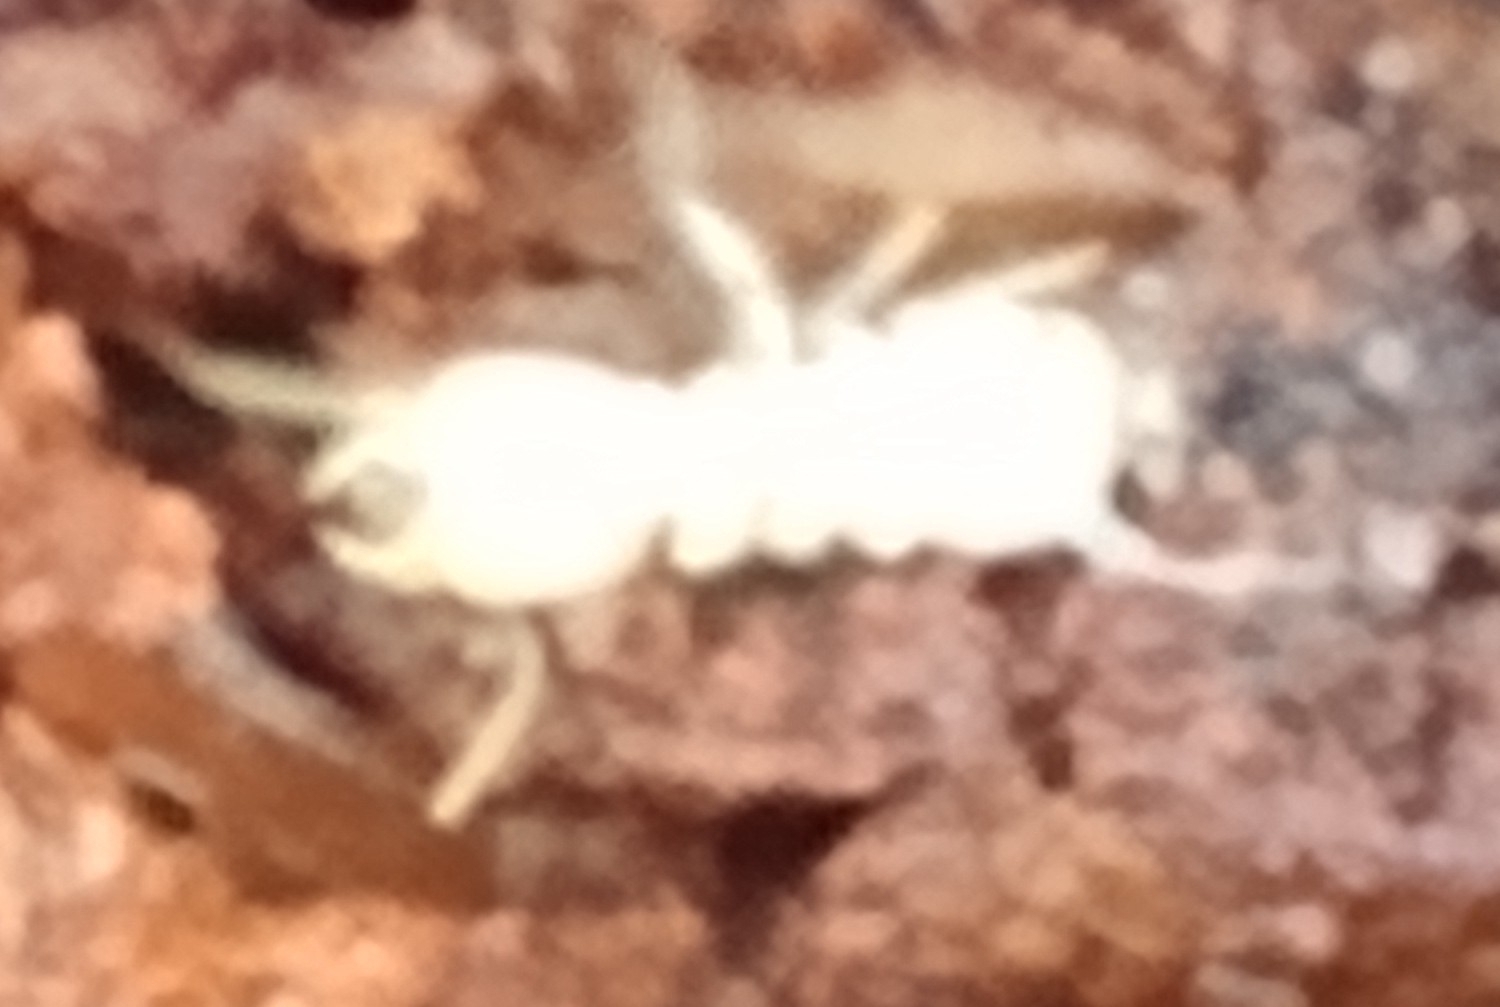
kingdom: Animalia
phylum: Arthropoda
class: Insecta
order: Blattodea
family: Rhinotermitidae
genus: Reticulitermes
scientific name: Reticulitermes flavipes
